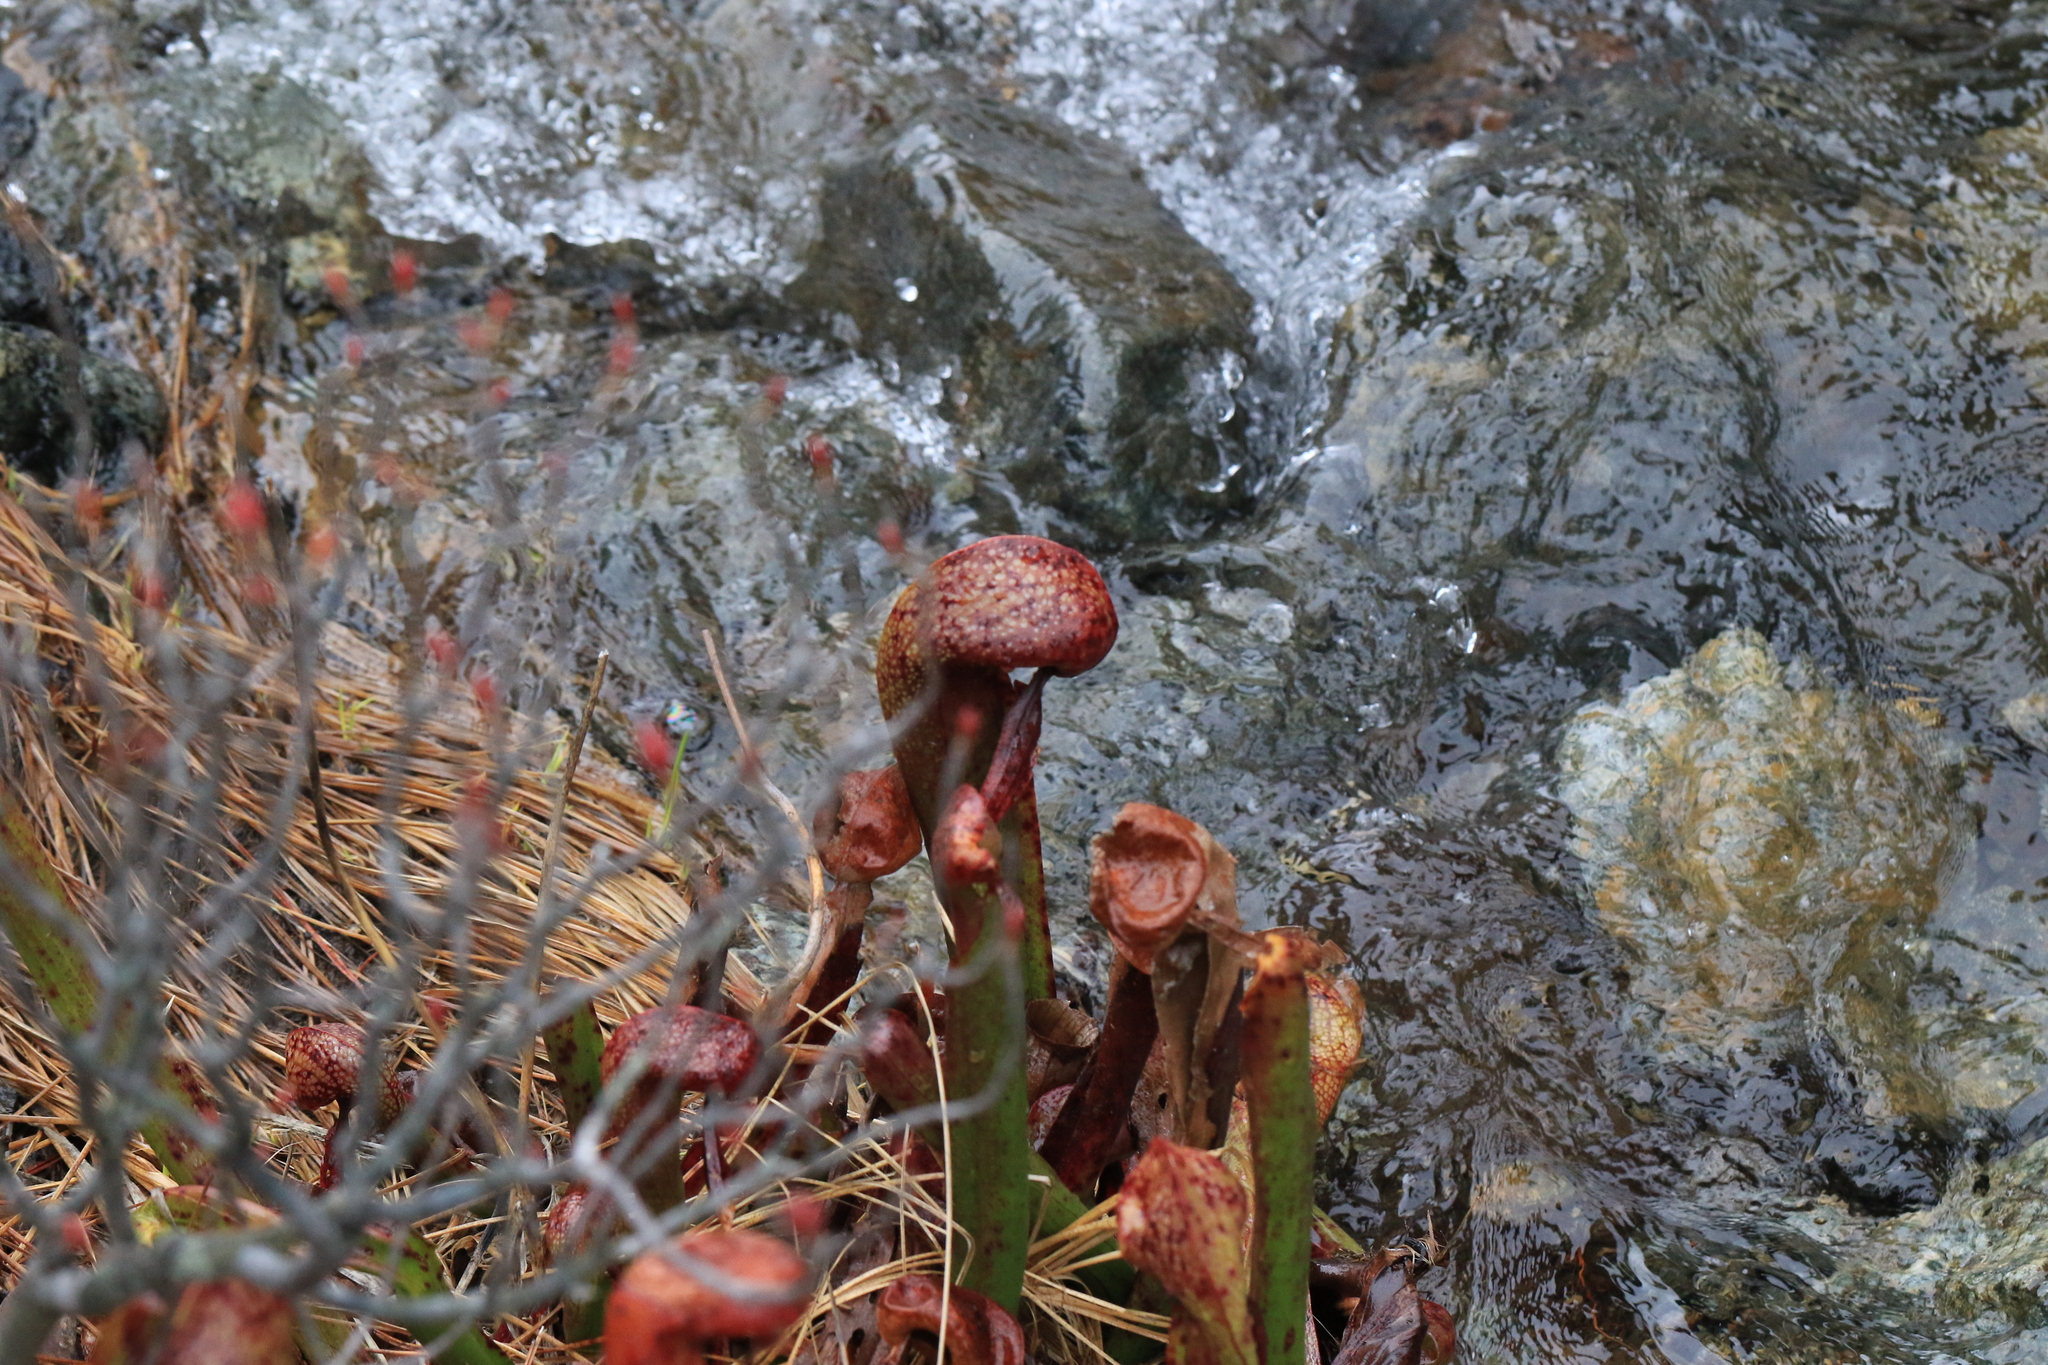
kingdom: Plantae
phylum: Tracheophyta
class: Magnoliopsida
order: Ericales
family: Sarraceniaceae
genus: Darlingtonia
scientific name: Darlingtonia californica
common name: California pitcher plant
